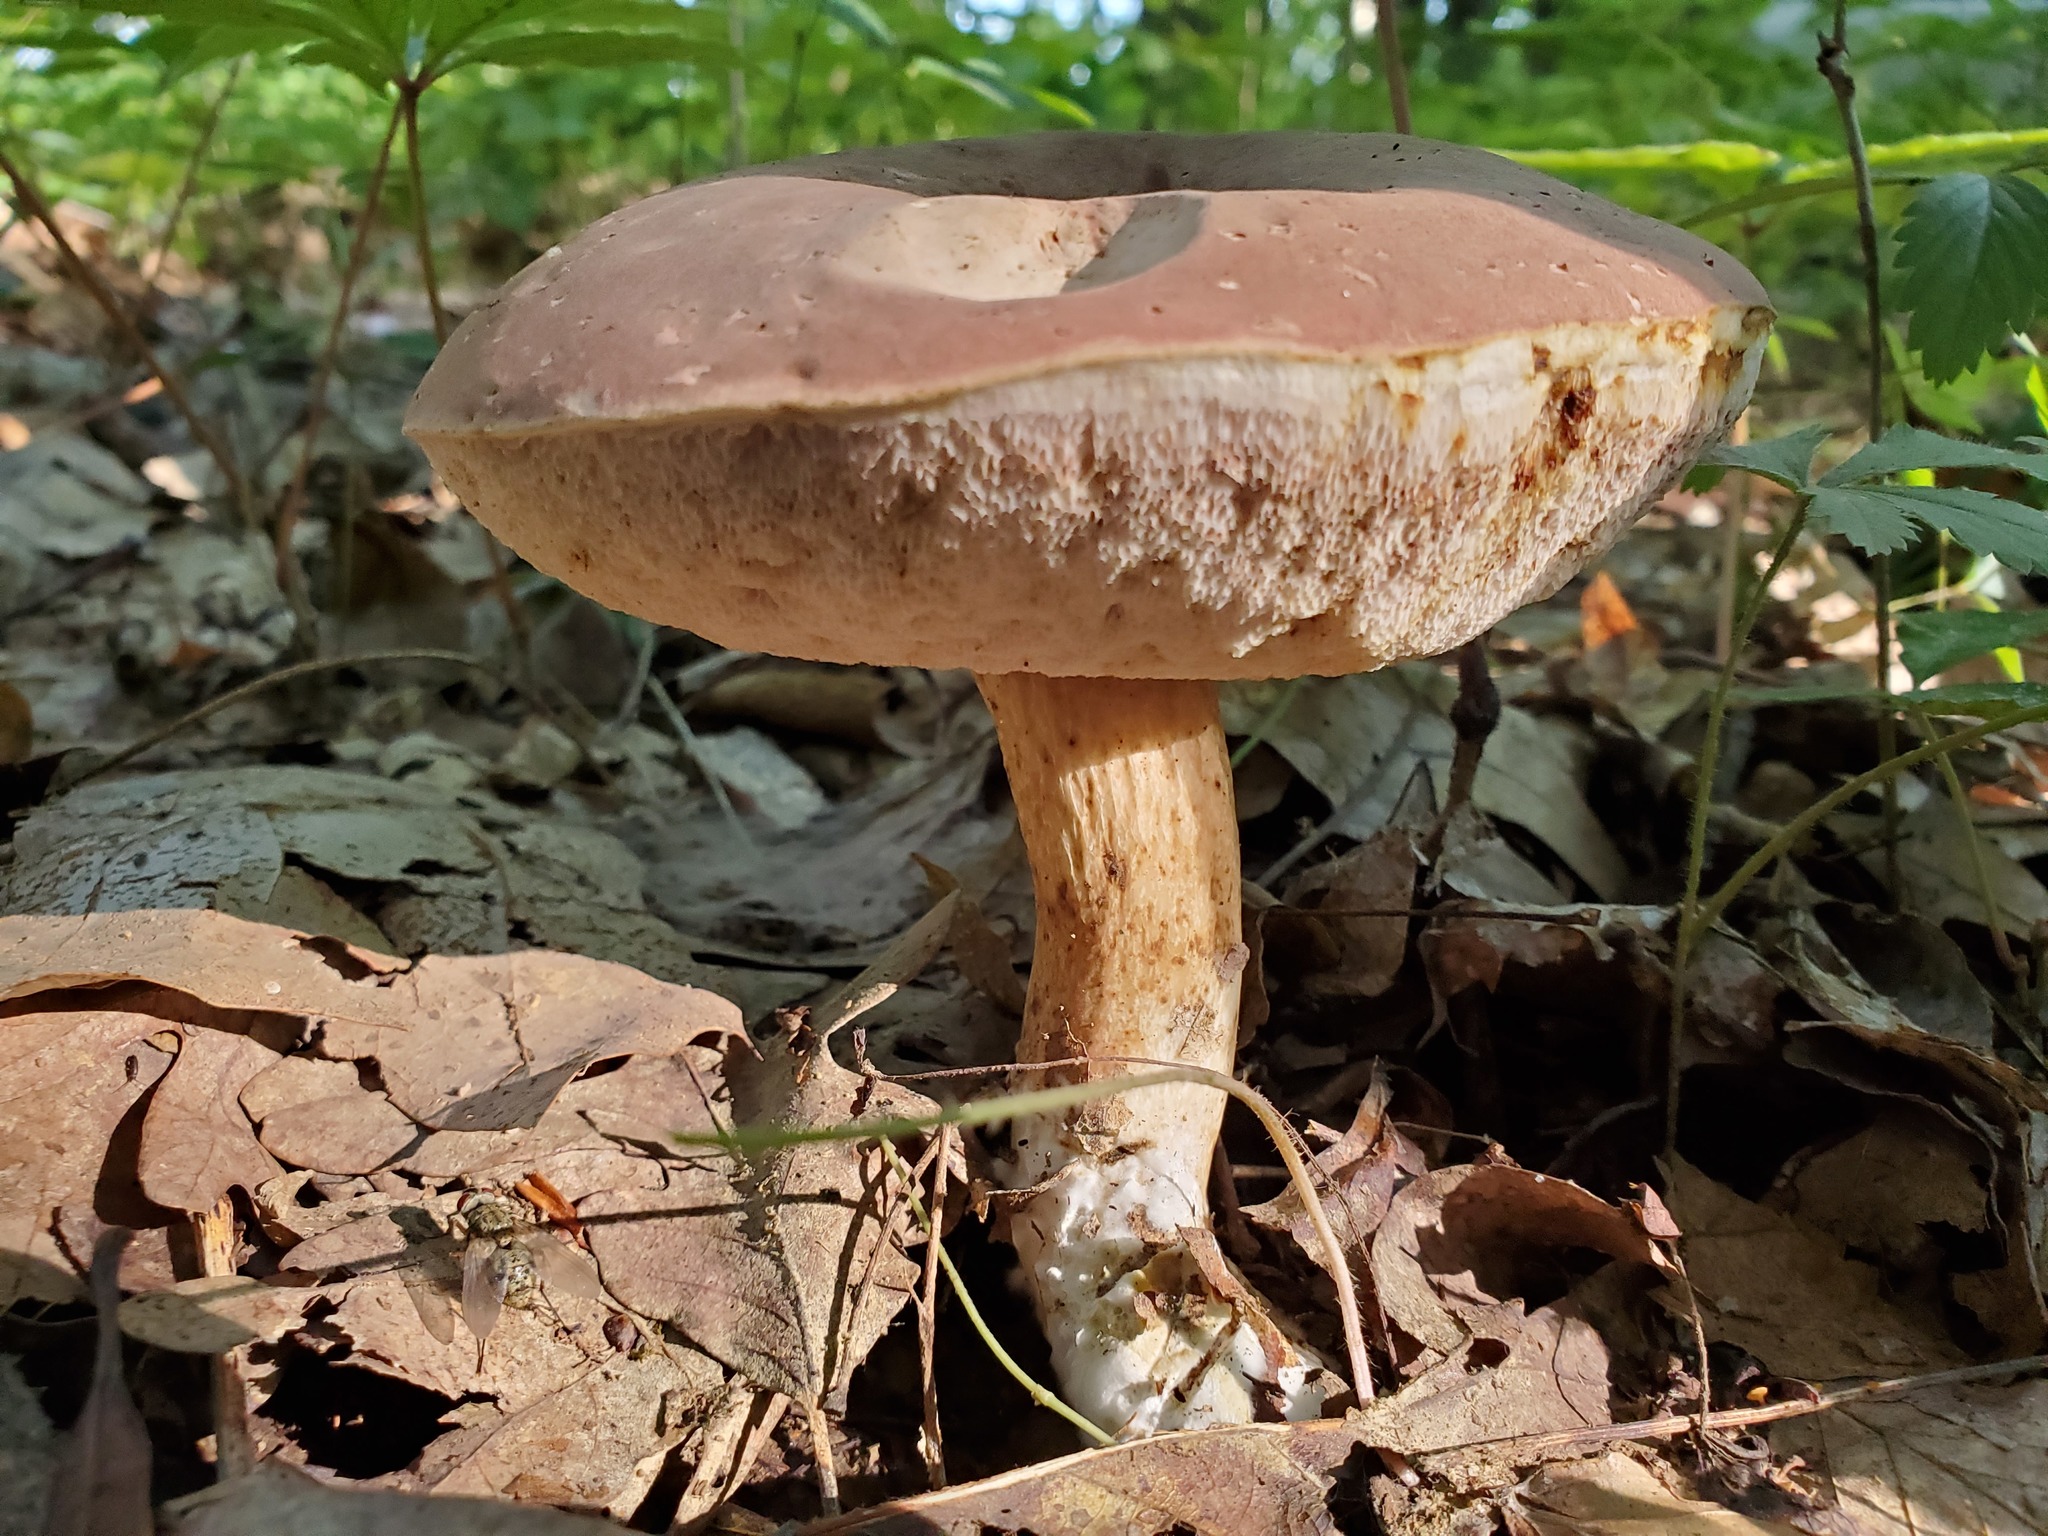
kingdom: Fungi
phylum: Basidiomycota
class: Agaricomycetes
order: Boletales
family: Boletaceae
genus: Tylopilus
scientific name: Tylopilus rubrobrunneus
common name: Reddish brown bitter bolete
